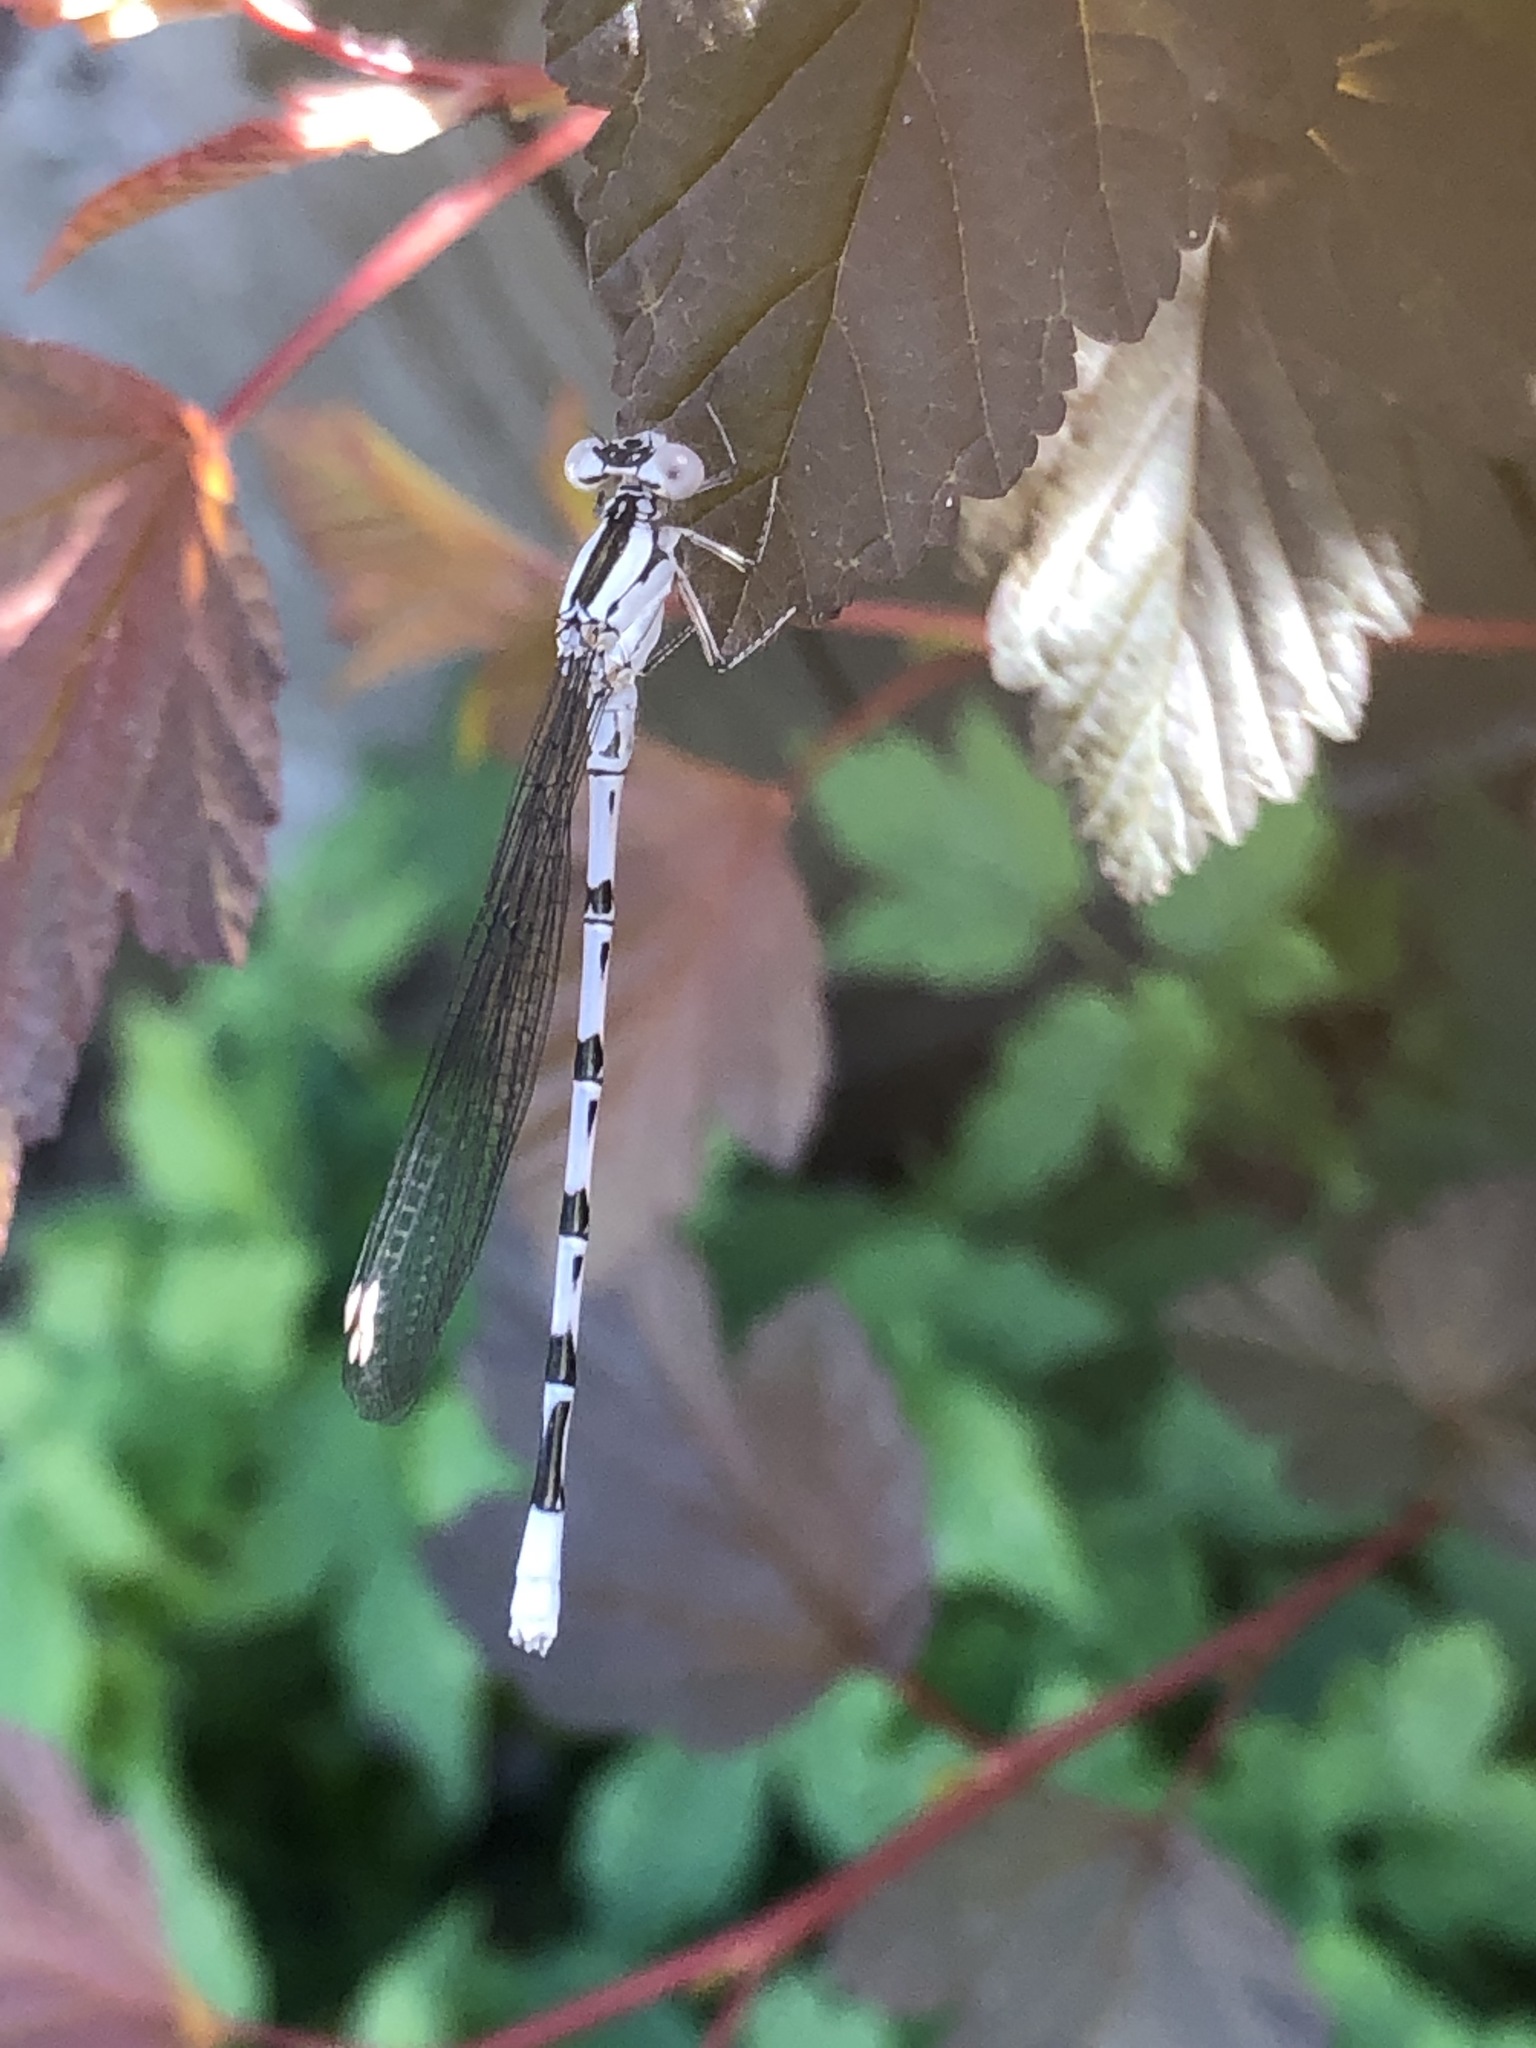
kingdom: Animalia
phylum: Arthropoda
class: Insecta
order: Odonata
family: Coenagrionidae
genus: Argia
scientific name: Argia vivida
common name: Vivid dancer
